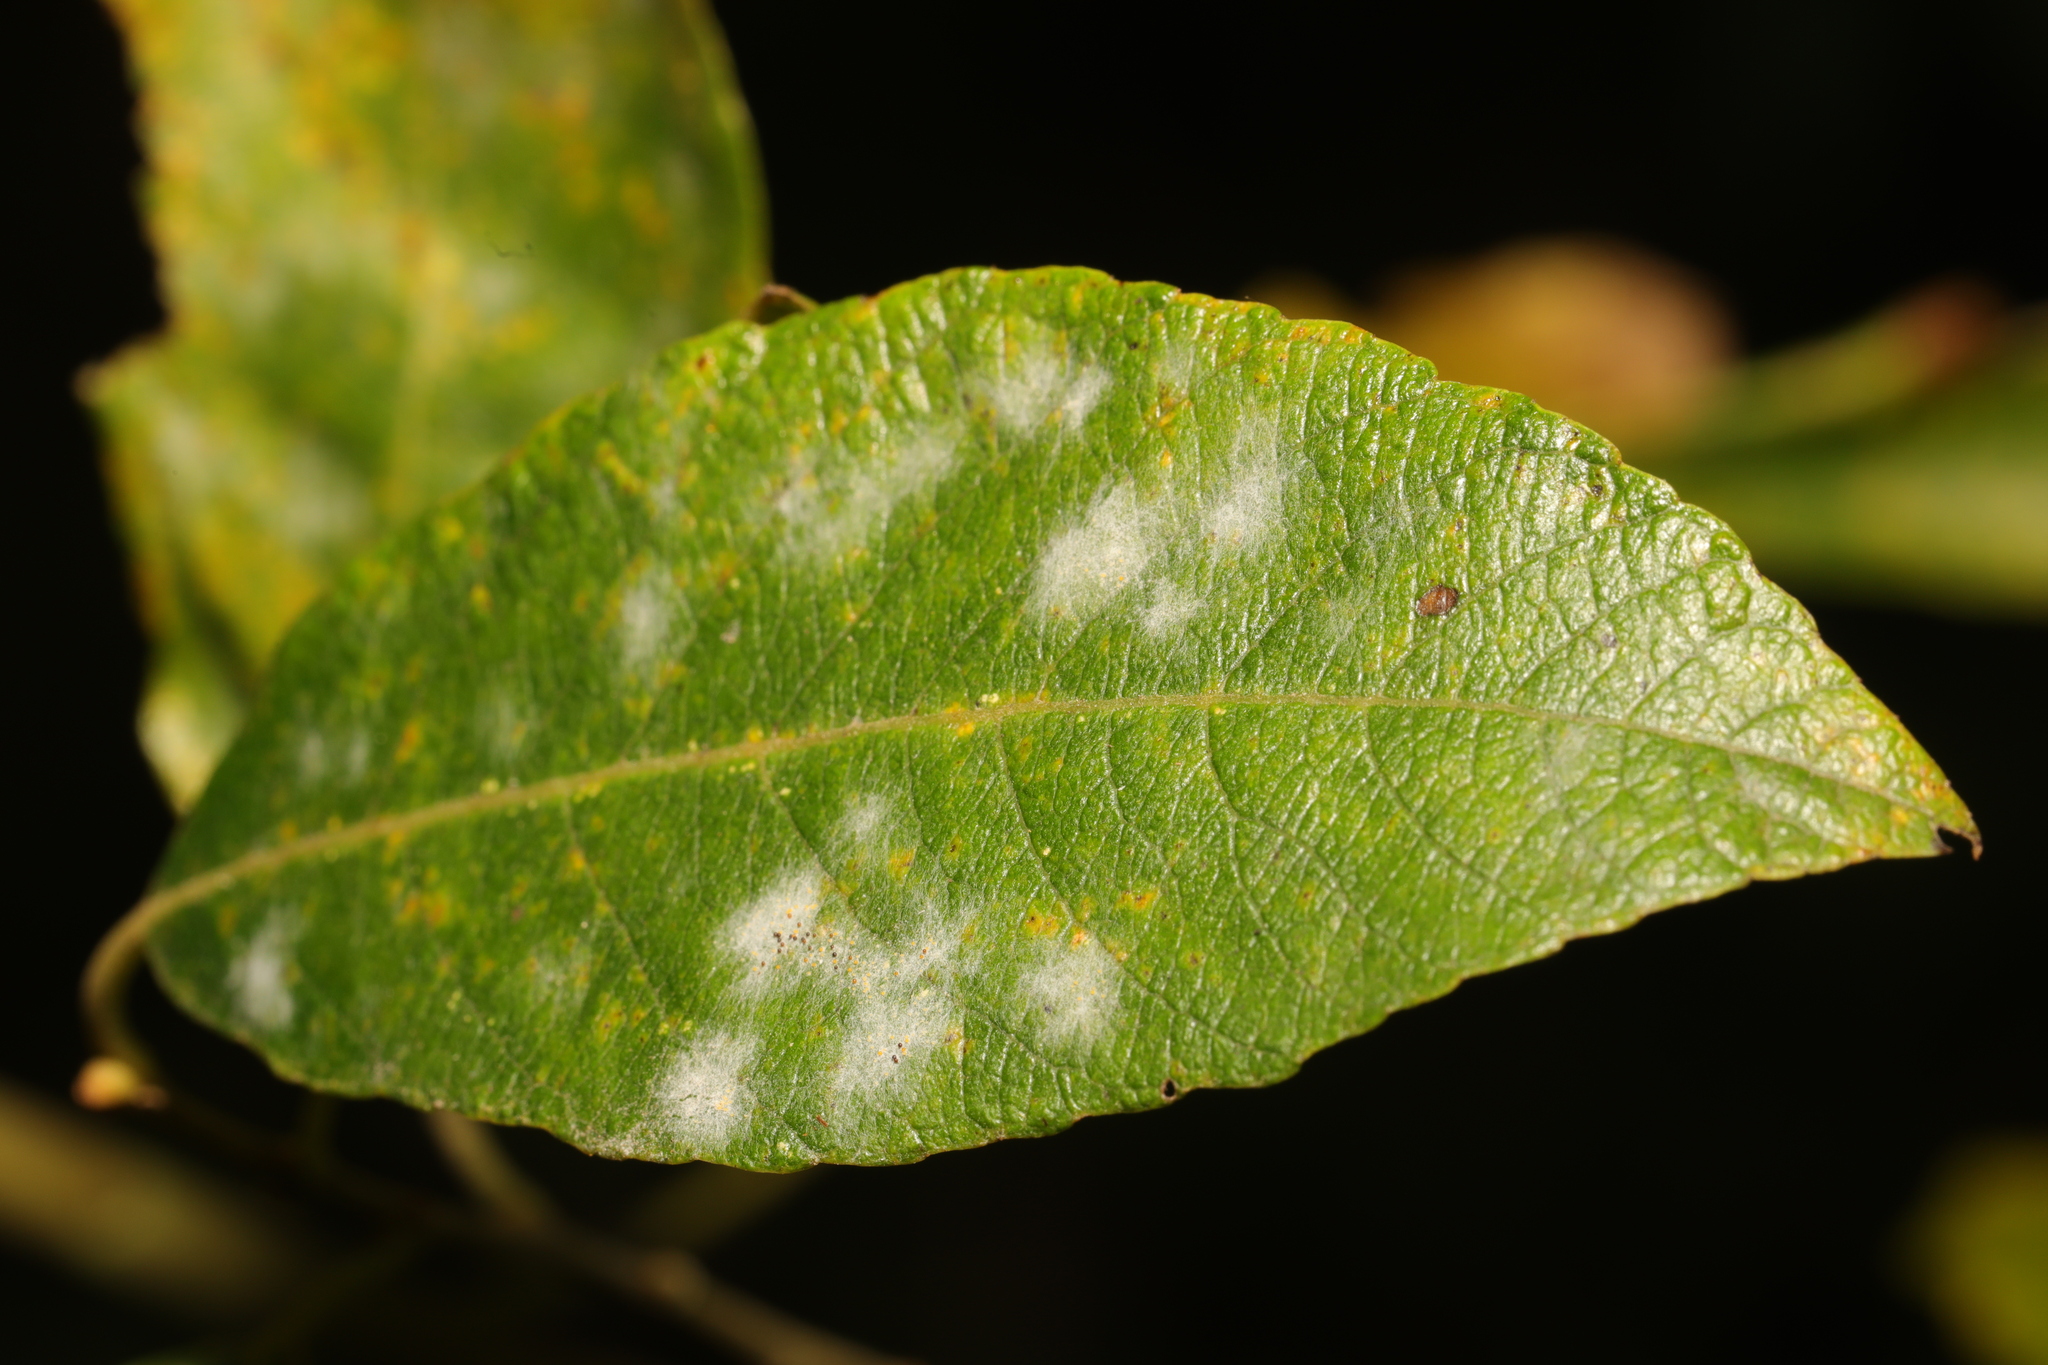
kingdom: Fungi
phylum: Ascomycota
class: Leotiomycetes
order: Helotiales
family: Erysiphaceae
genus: Erysiphe
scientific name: Erysiphe capreae
